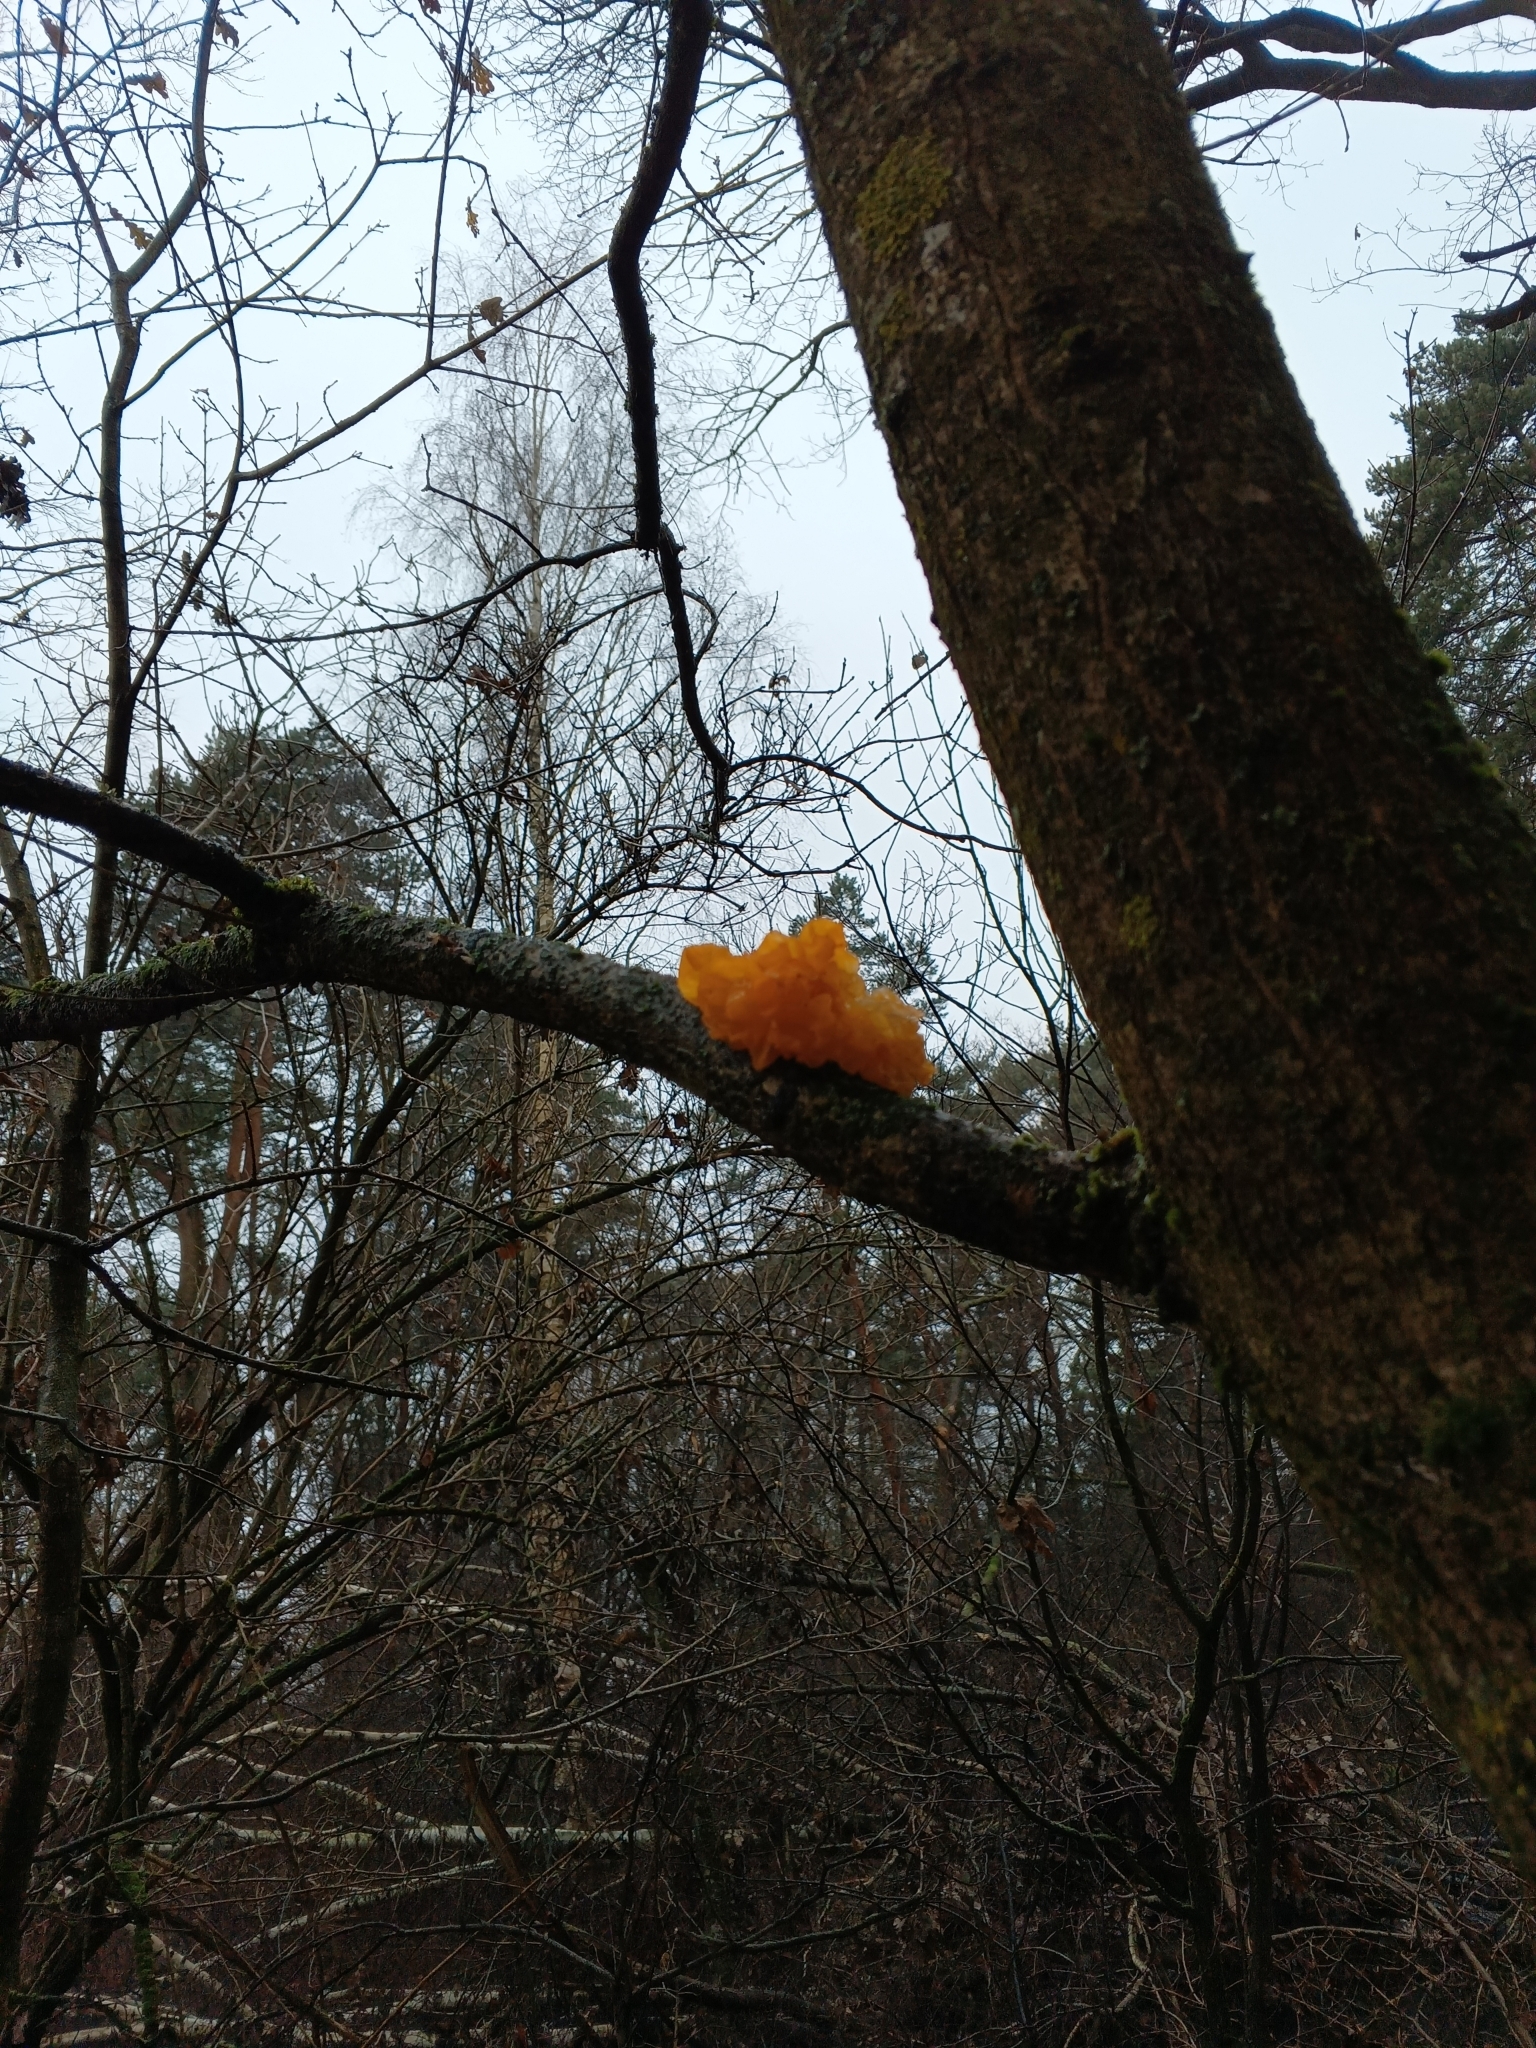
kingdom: Fungi
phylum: Basidiomycota
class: Tremellomycetes
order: Tremellales
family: Tremellaceae
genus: Tremella
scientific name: Tremella mesenterica
